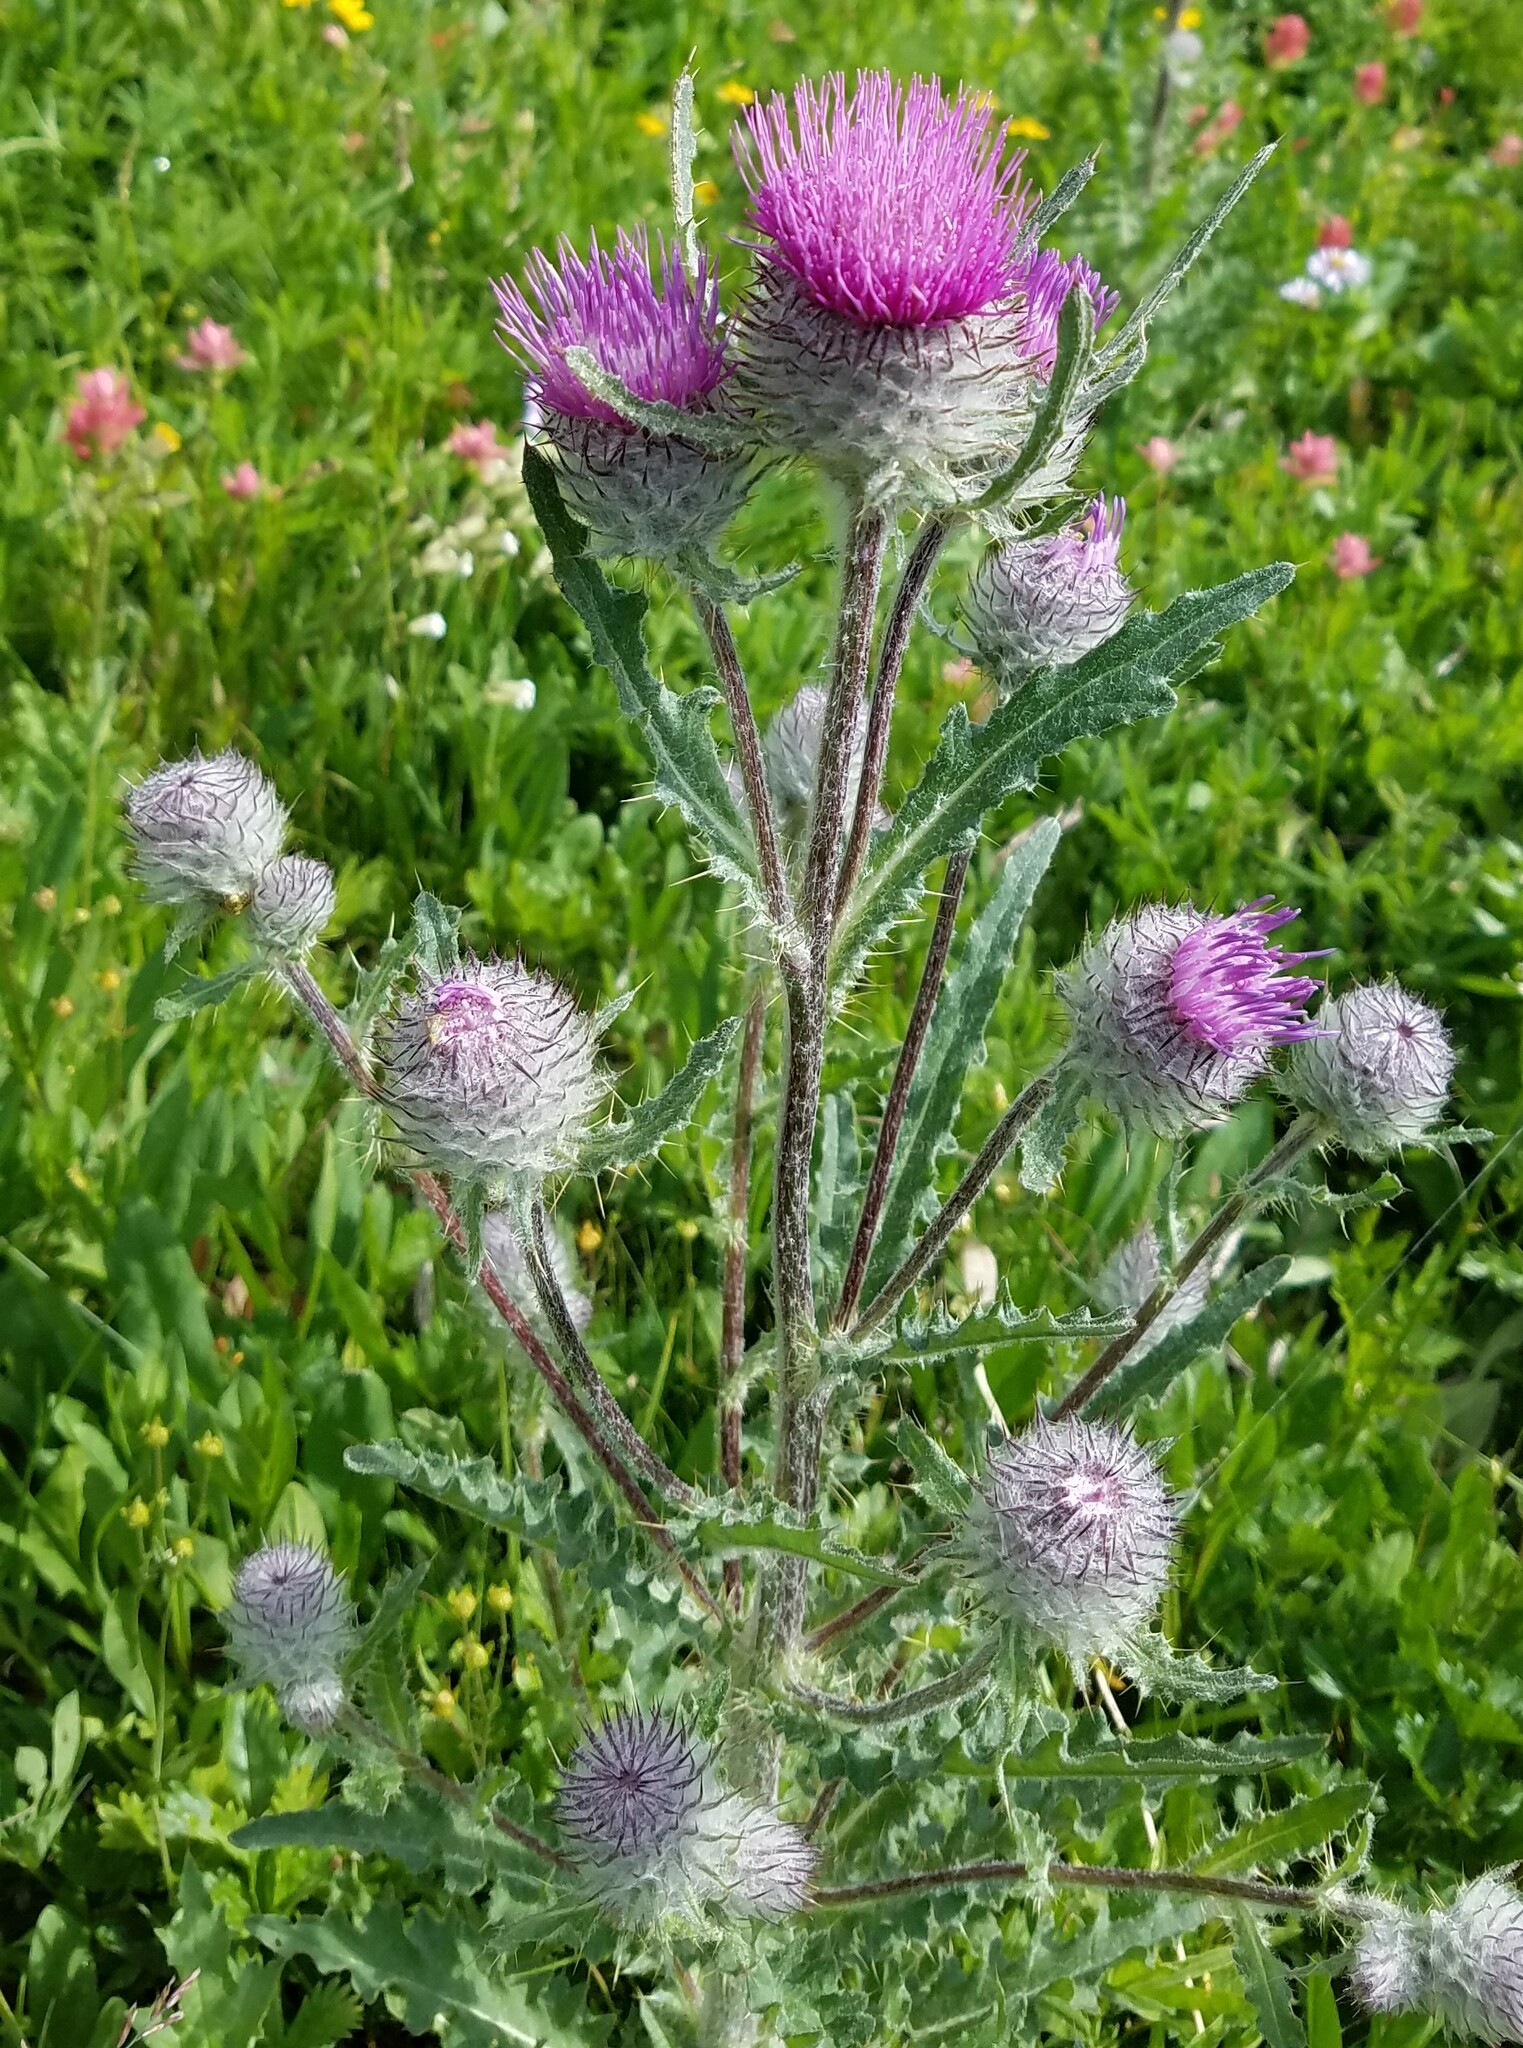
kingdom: Plantae
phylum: Tracheophyta
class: Magnoliopsida
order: Asterales
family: Asteraceae
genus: Cirsium
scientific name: Cirsium edule
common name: Indian thistle
